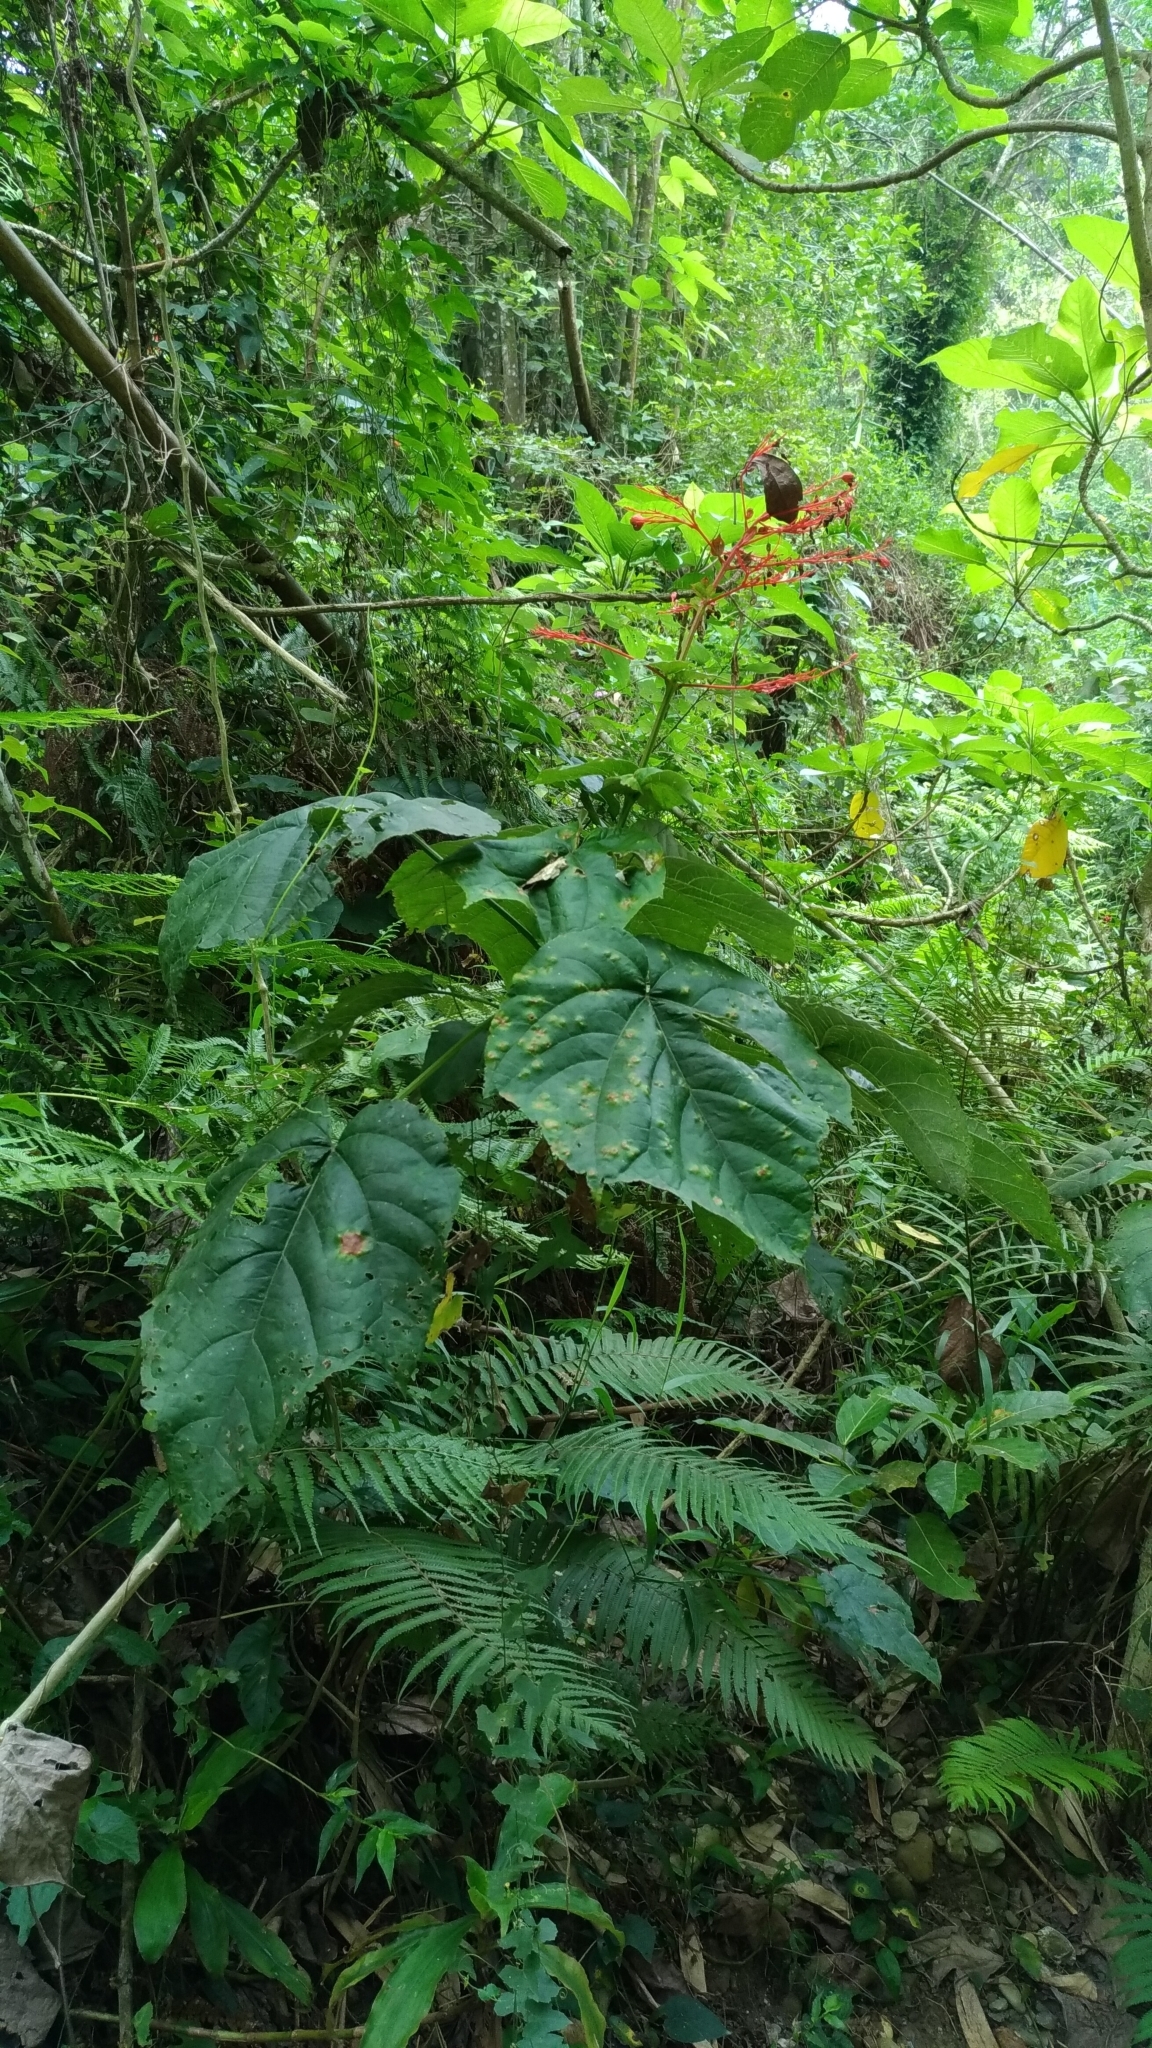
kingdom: Plantae
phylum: Tracheophyta
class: Magnoliopsida
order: Lamiales
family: Lamiaceae
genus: Clerodendrum
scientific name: Clerodendrum japonicum
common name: Japanese glorybower
